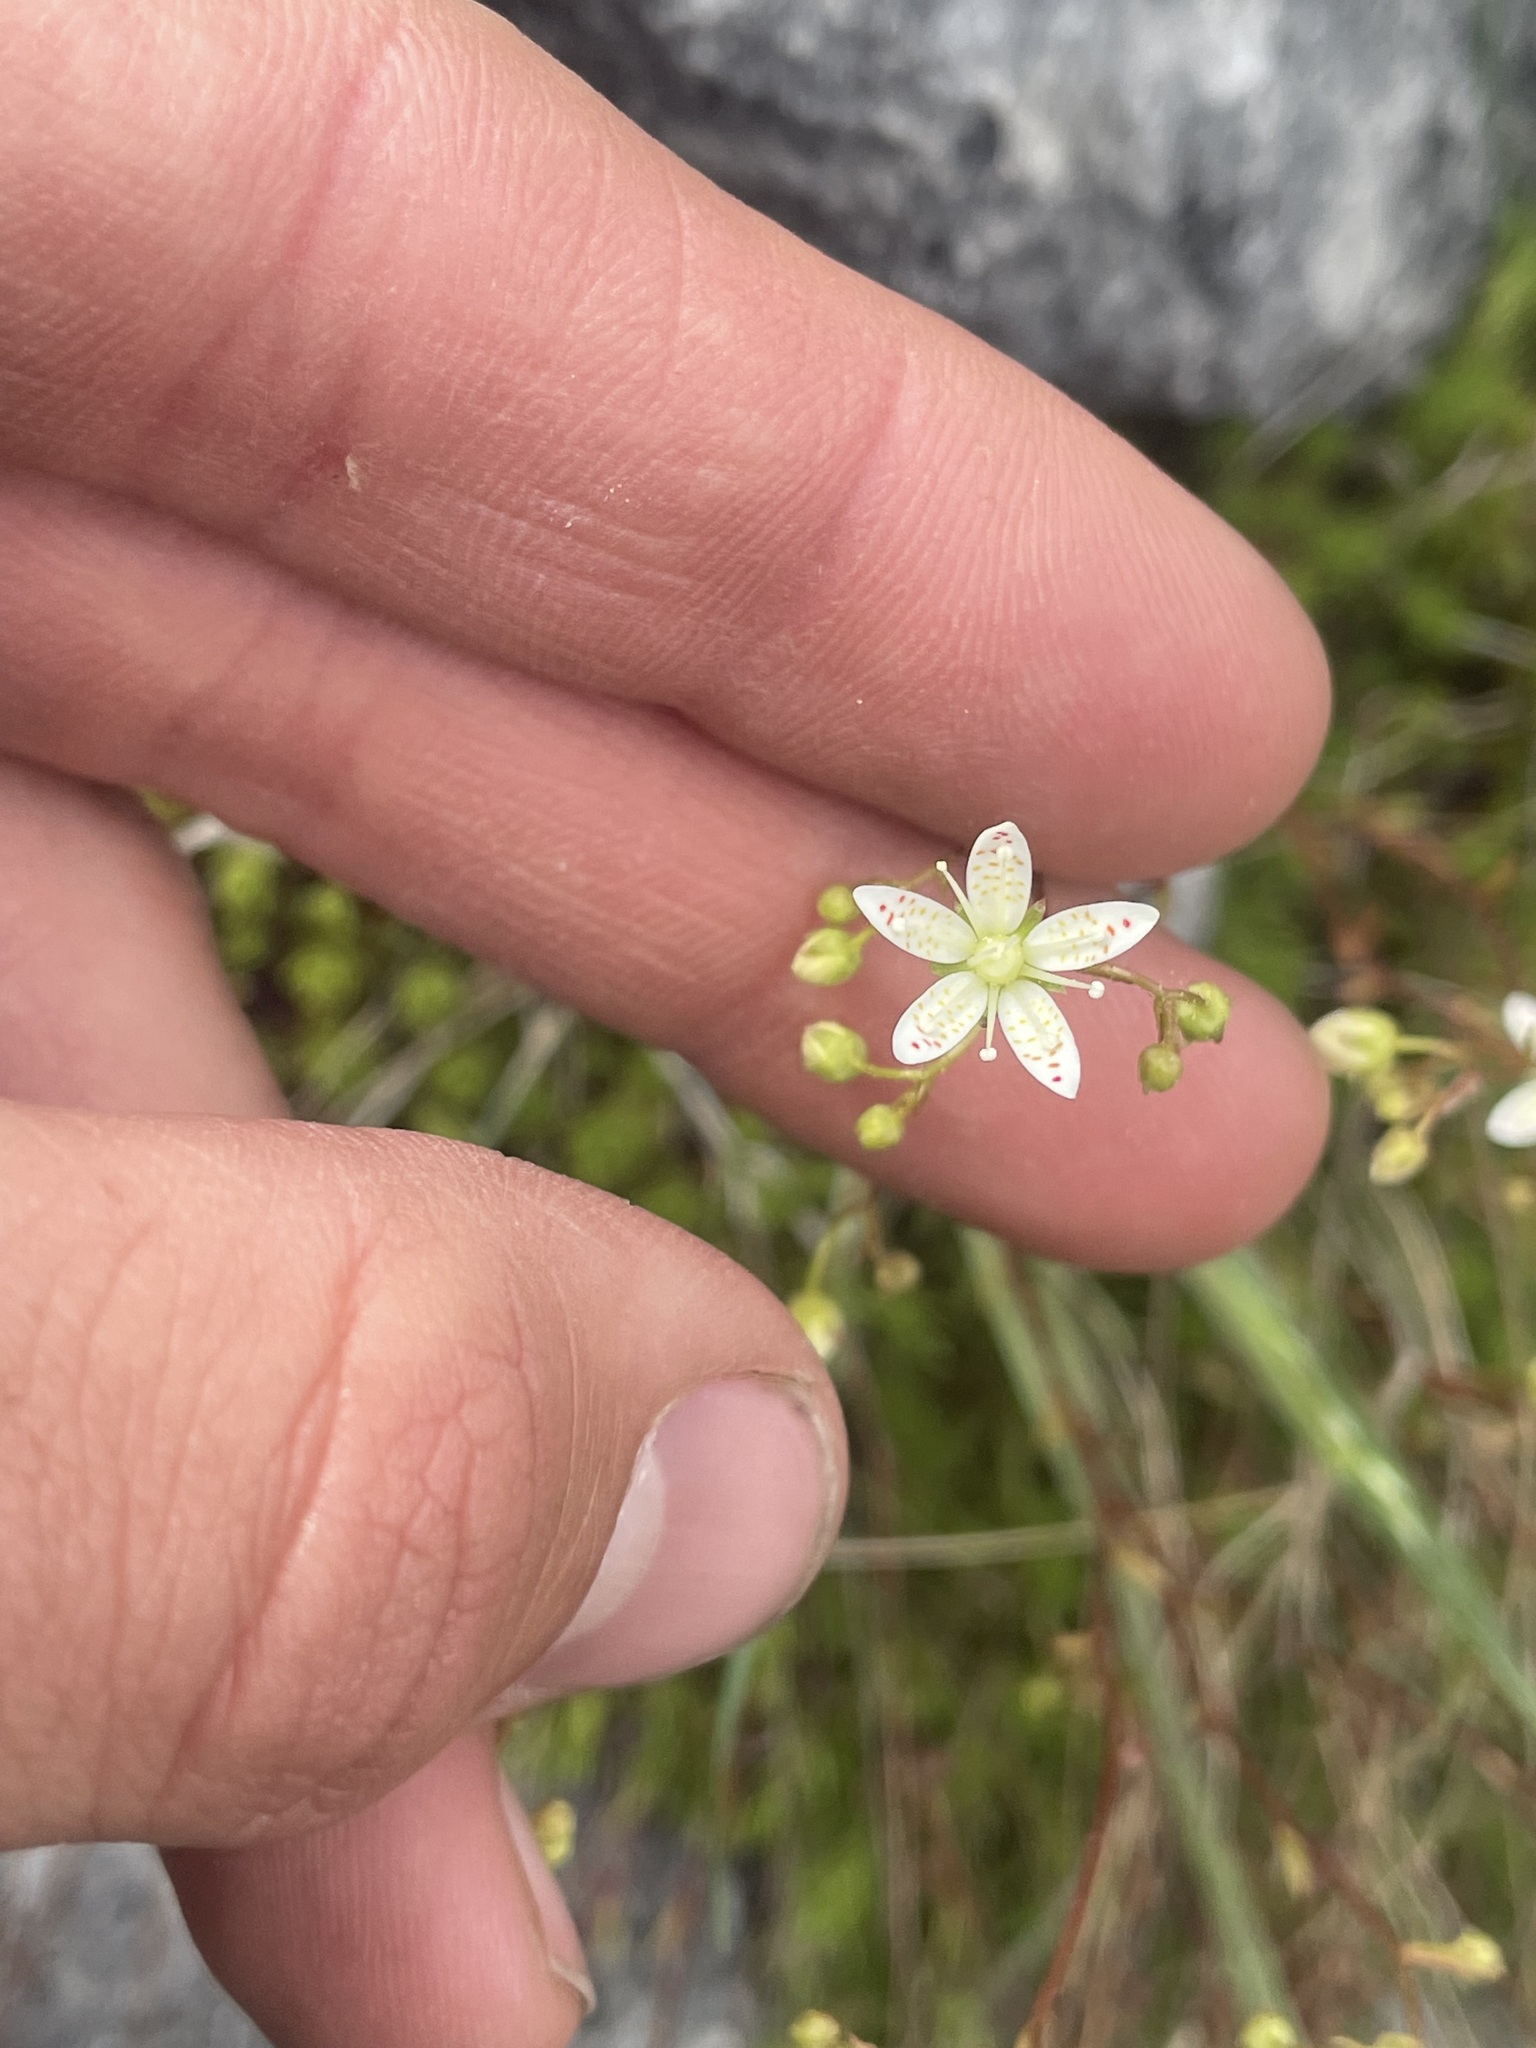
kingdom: Plantae
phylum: Tracheophyta
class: Magnoliopsida
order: Saxifragales
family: Saxifragaceae
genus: Saxifraga
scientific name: Saxifraga bronchialis
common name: Matted saxifrage
